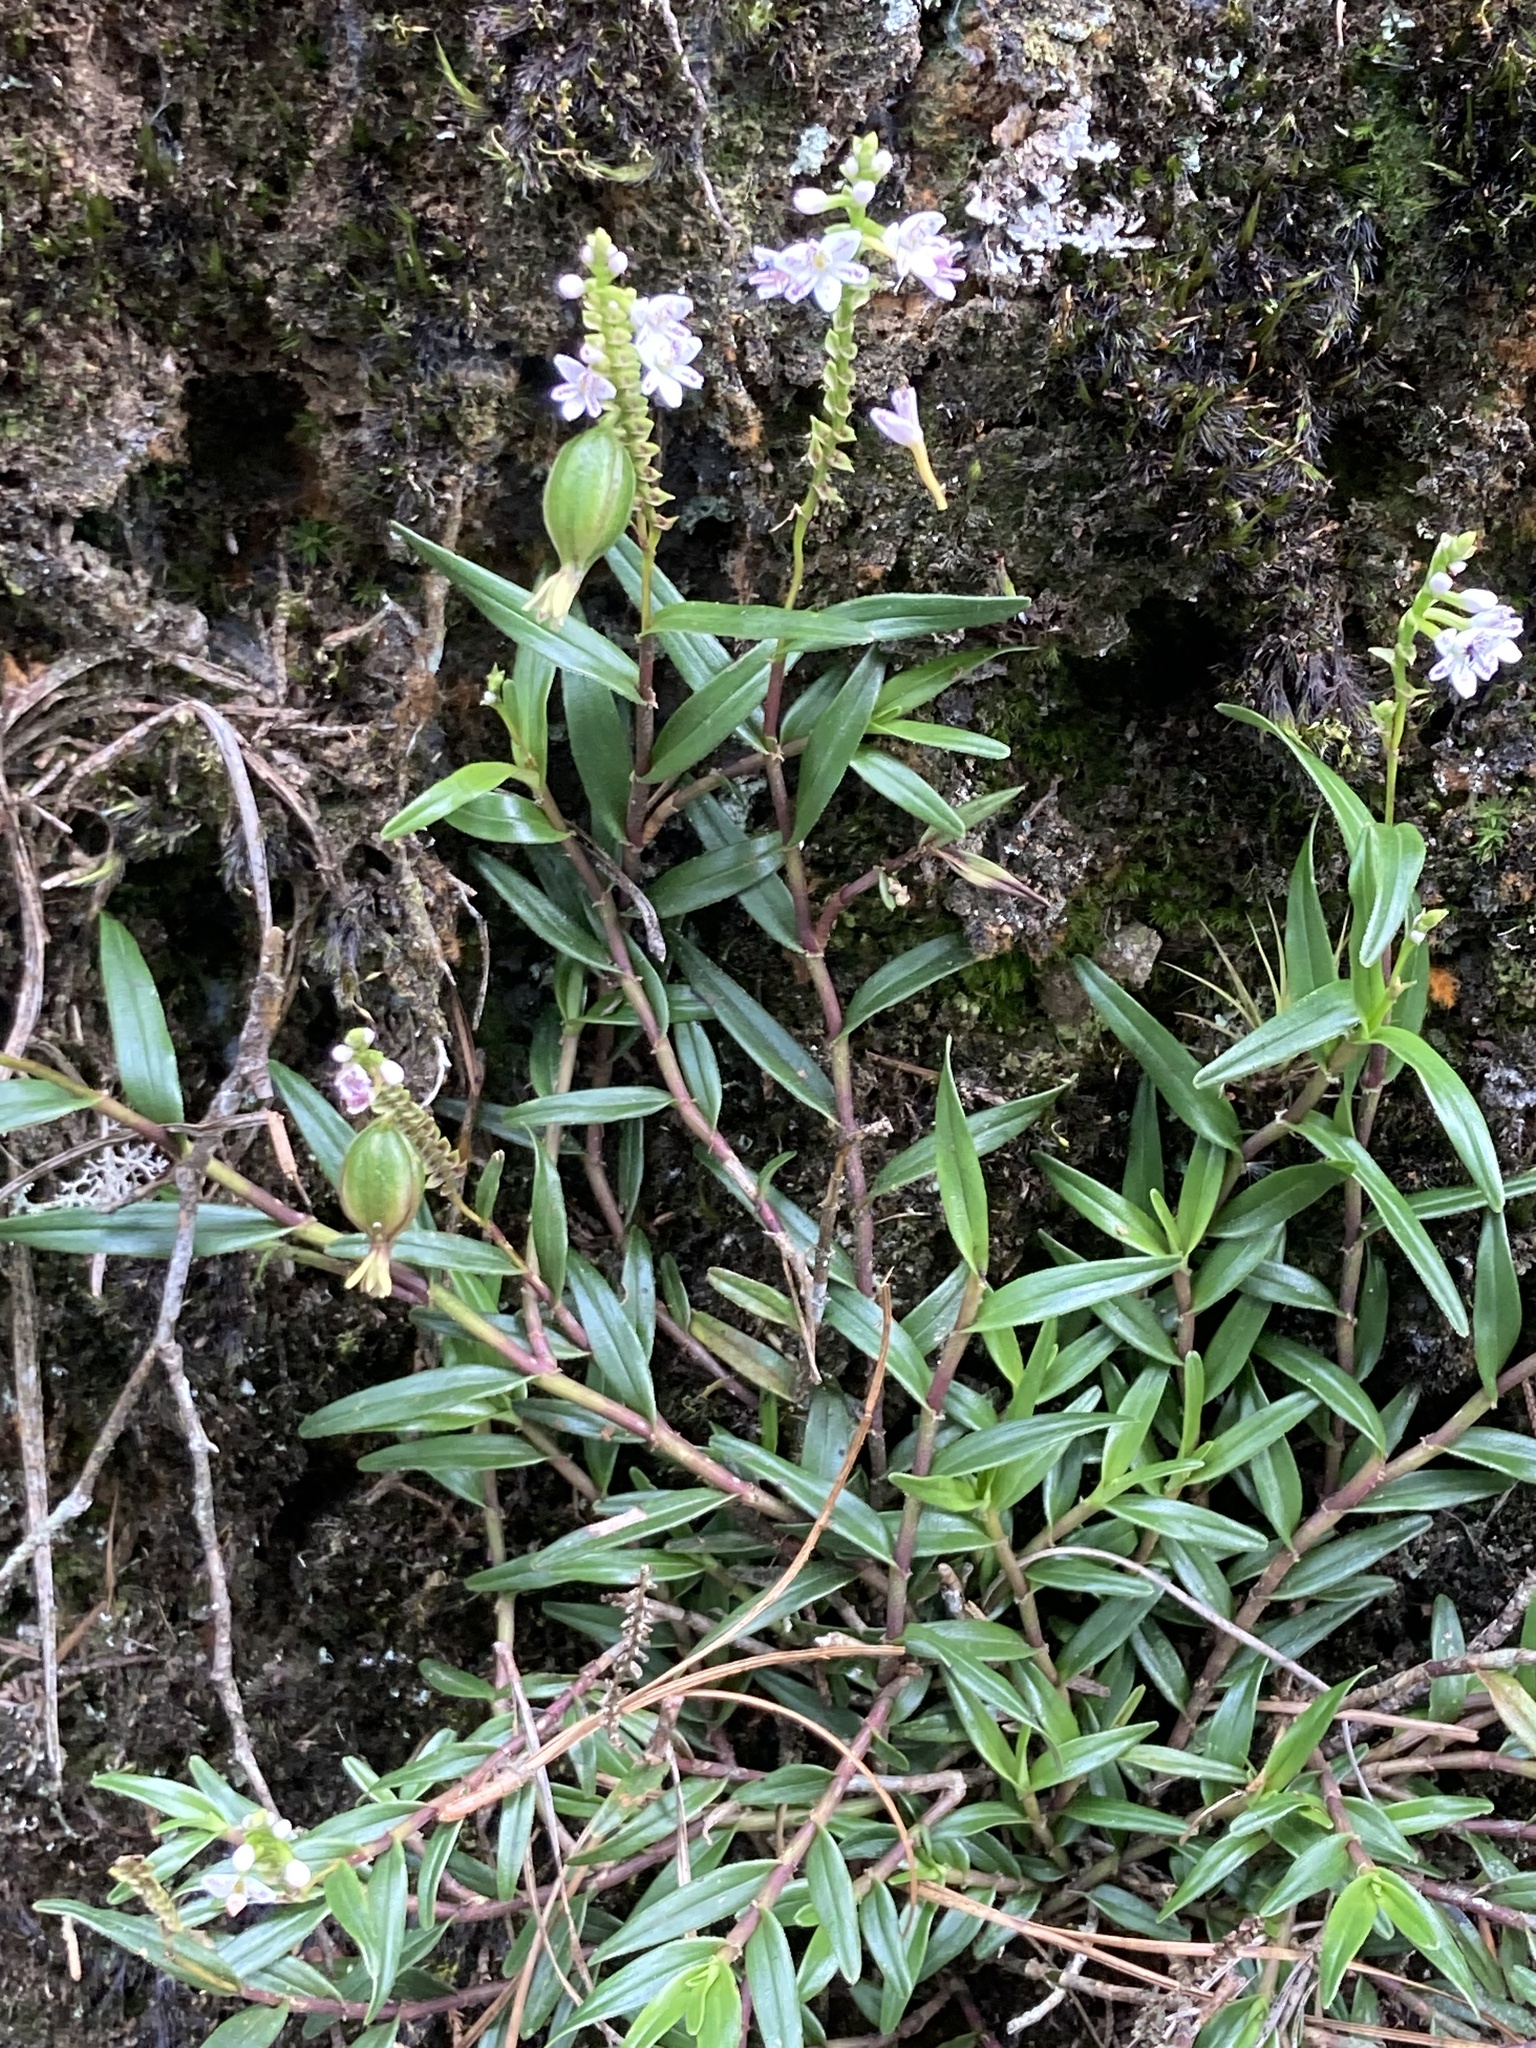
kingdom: Plantae
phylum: Tracheophyta
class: Liliopsida
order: Asparagales
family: Orchidaceae
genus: Epidendrum
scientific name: Epidendrum fimbriatum
